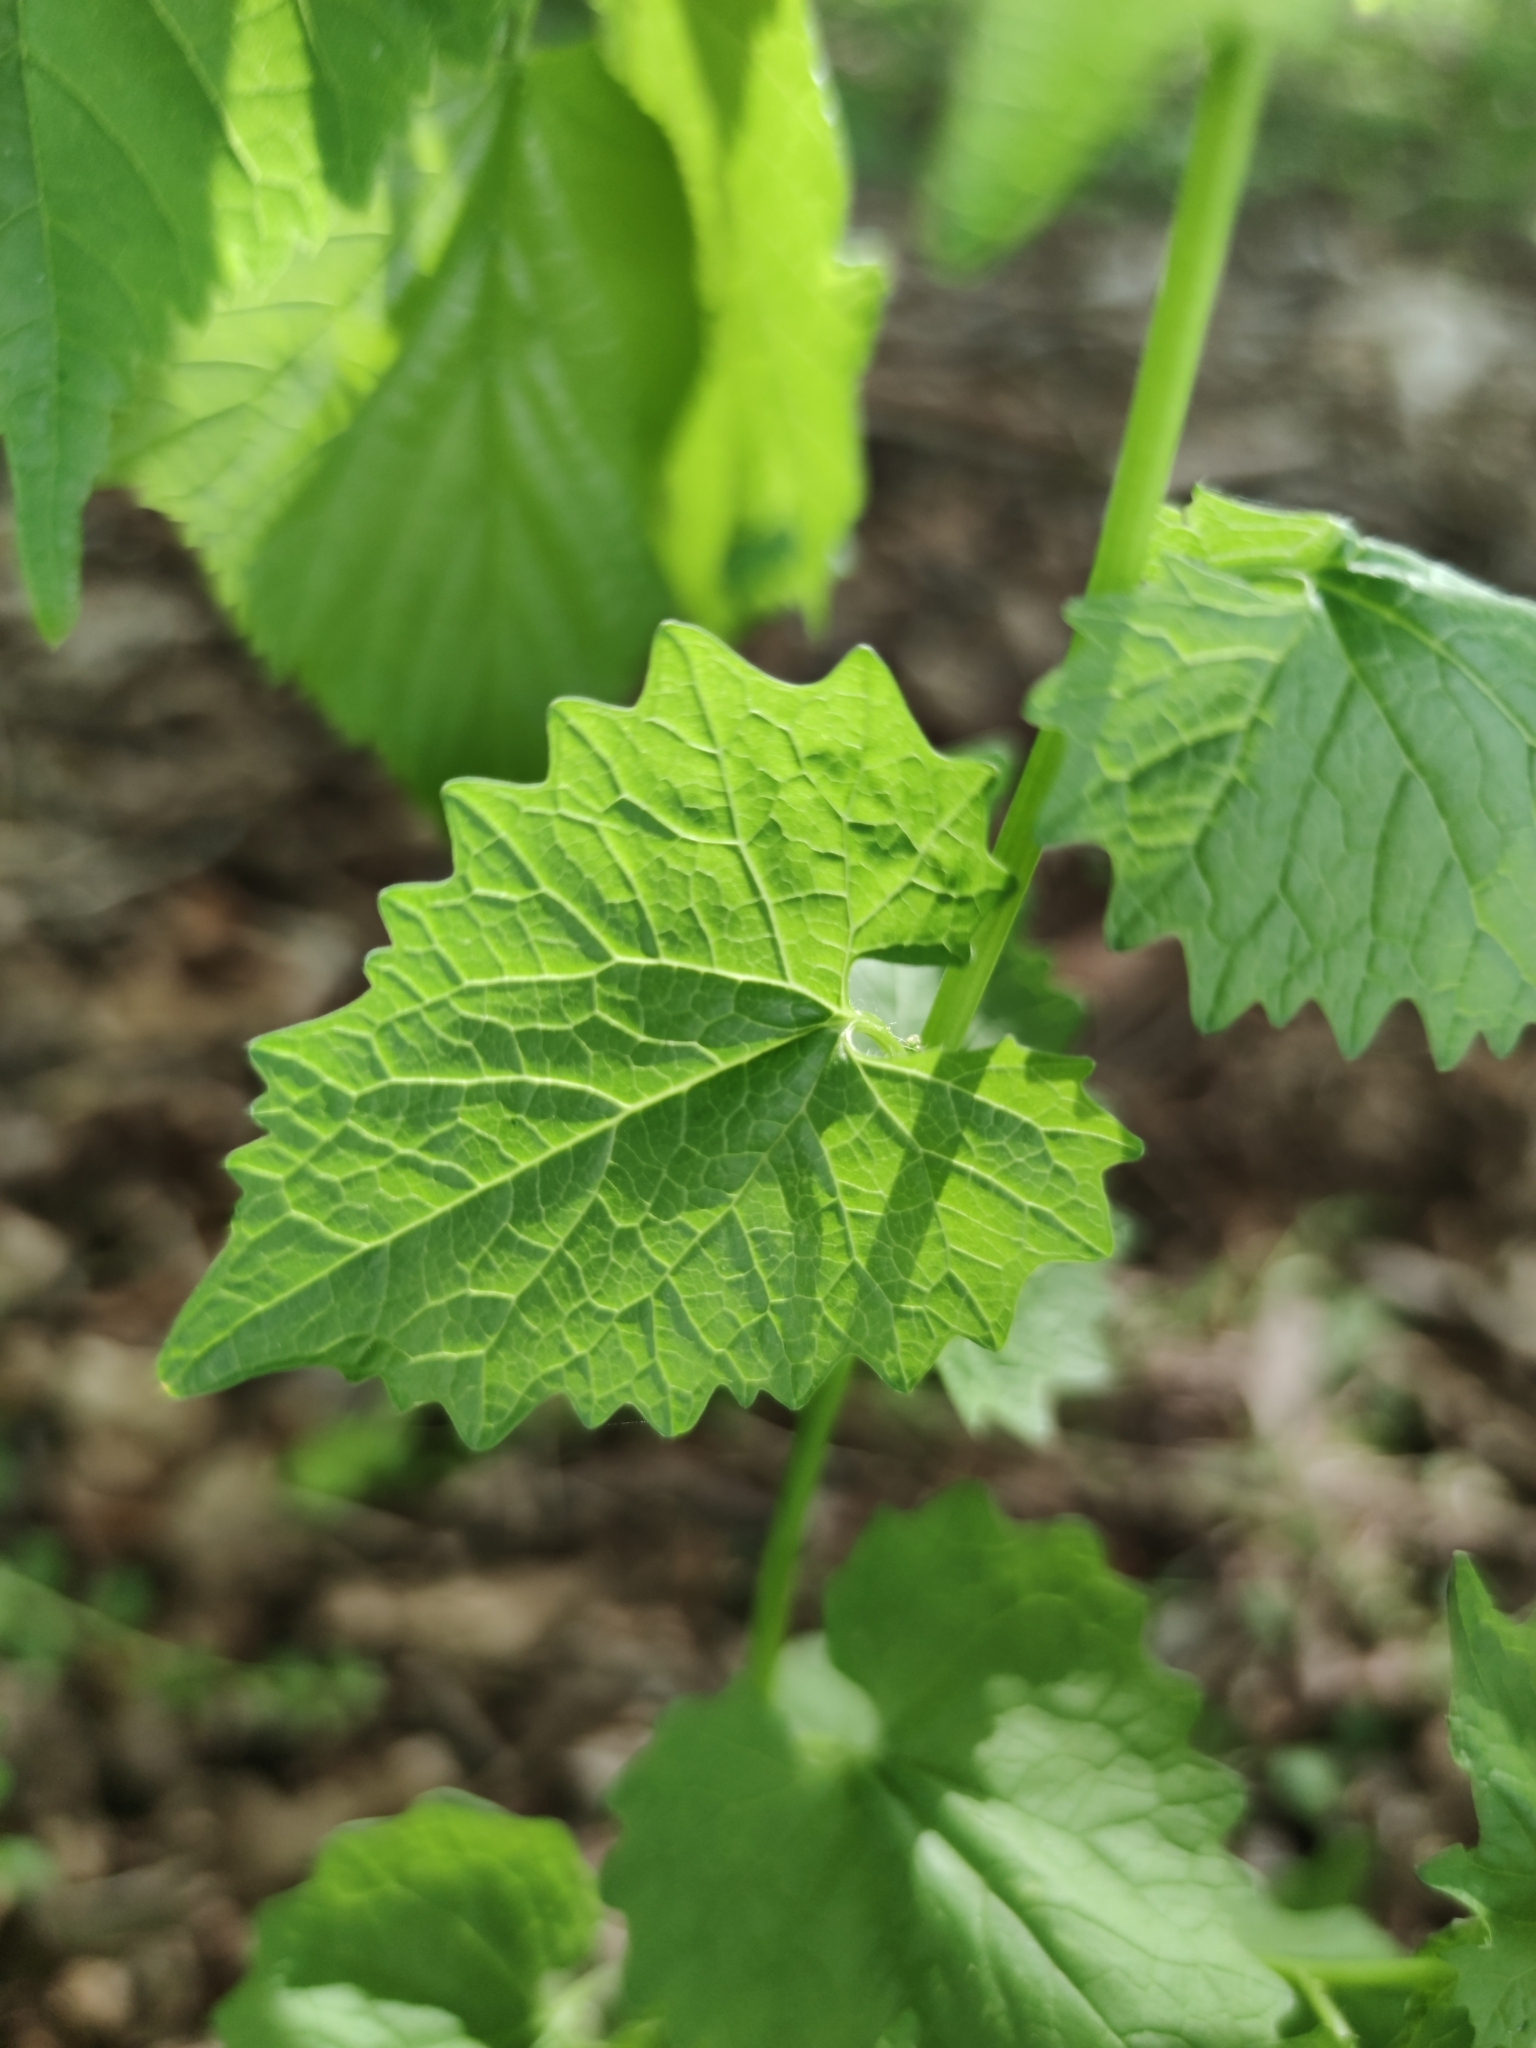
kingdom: Plantae
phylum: Tracheophyta
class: Magnoliopsida
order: Brassicales
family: Brassicaceae
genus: Alliaria
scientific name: Alliaria petiolata
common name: Garlic mustard
